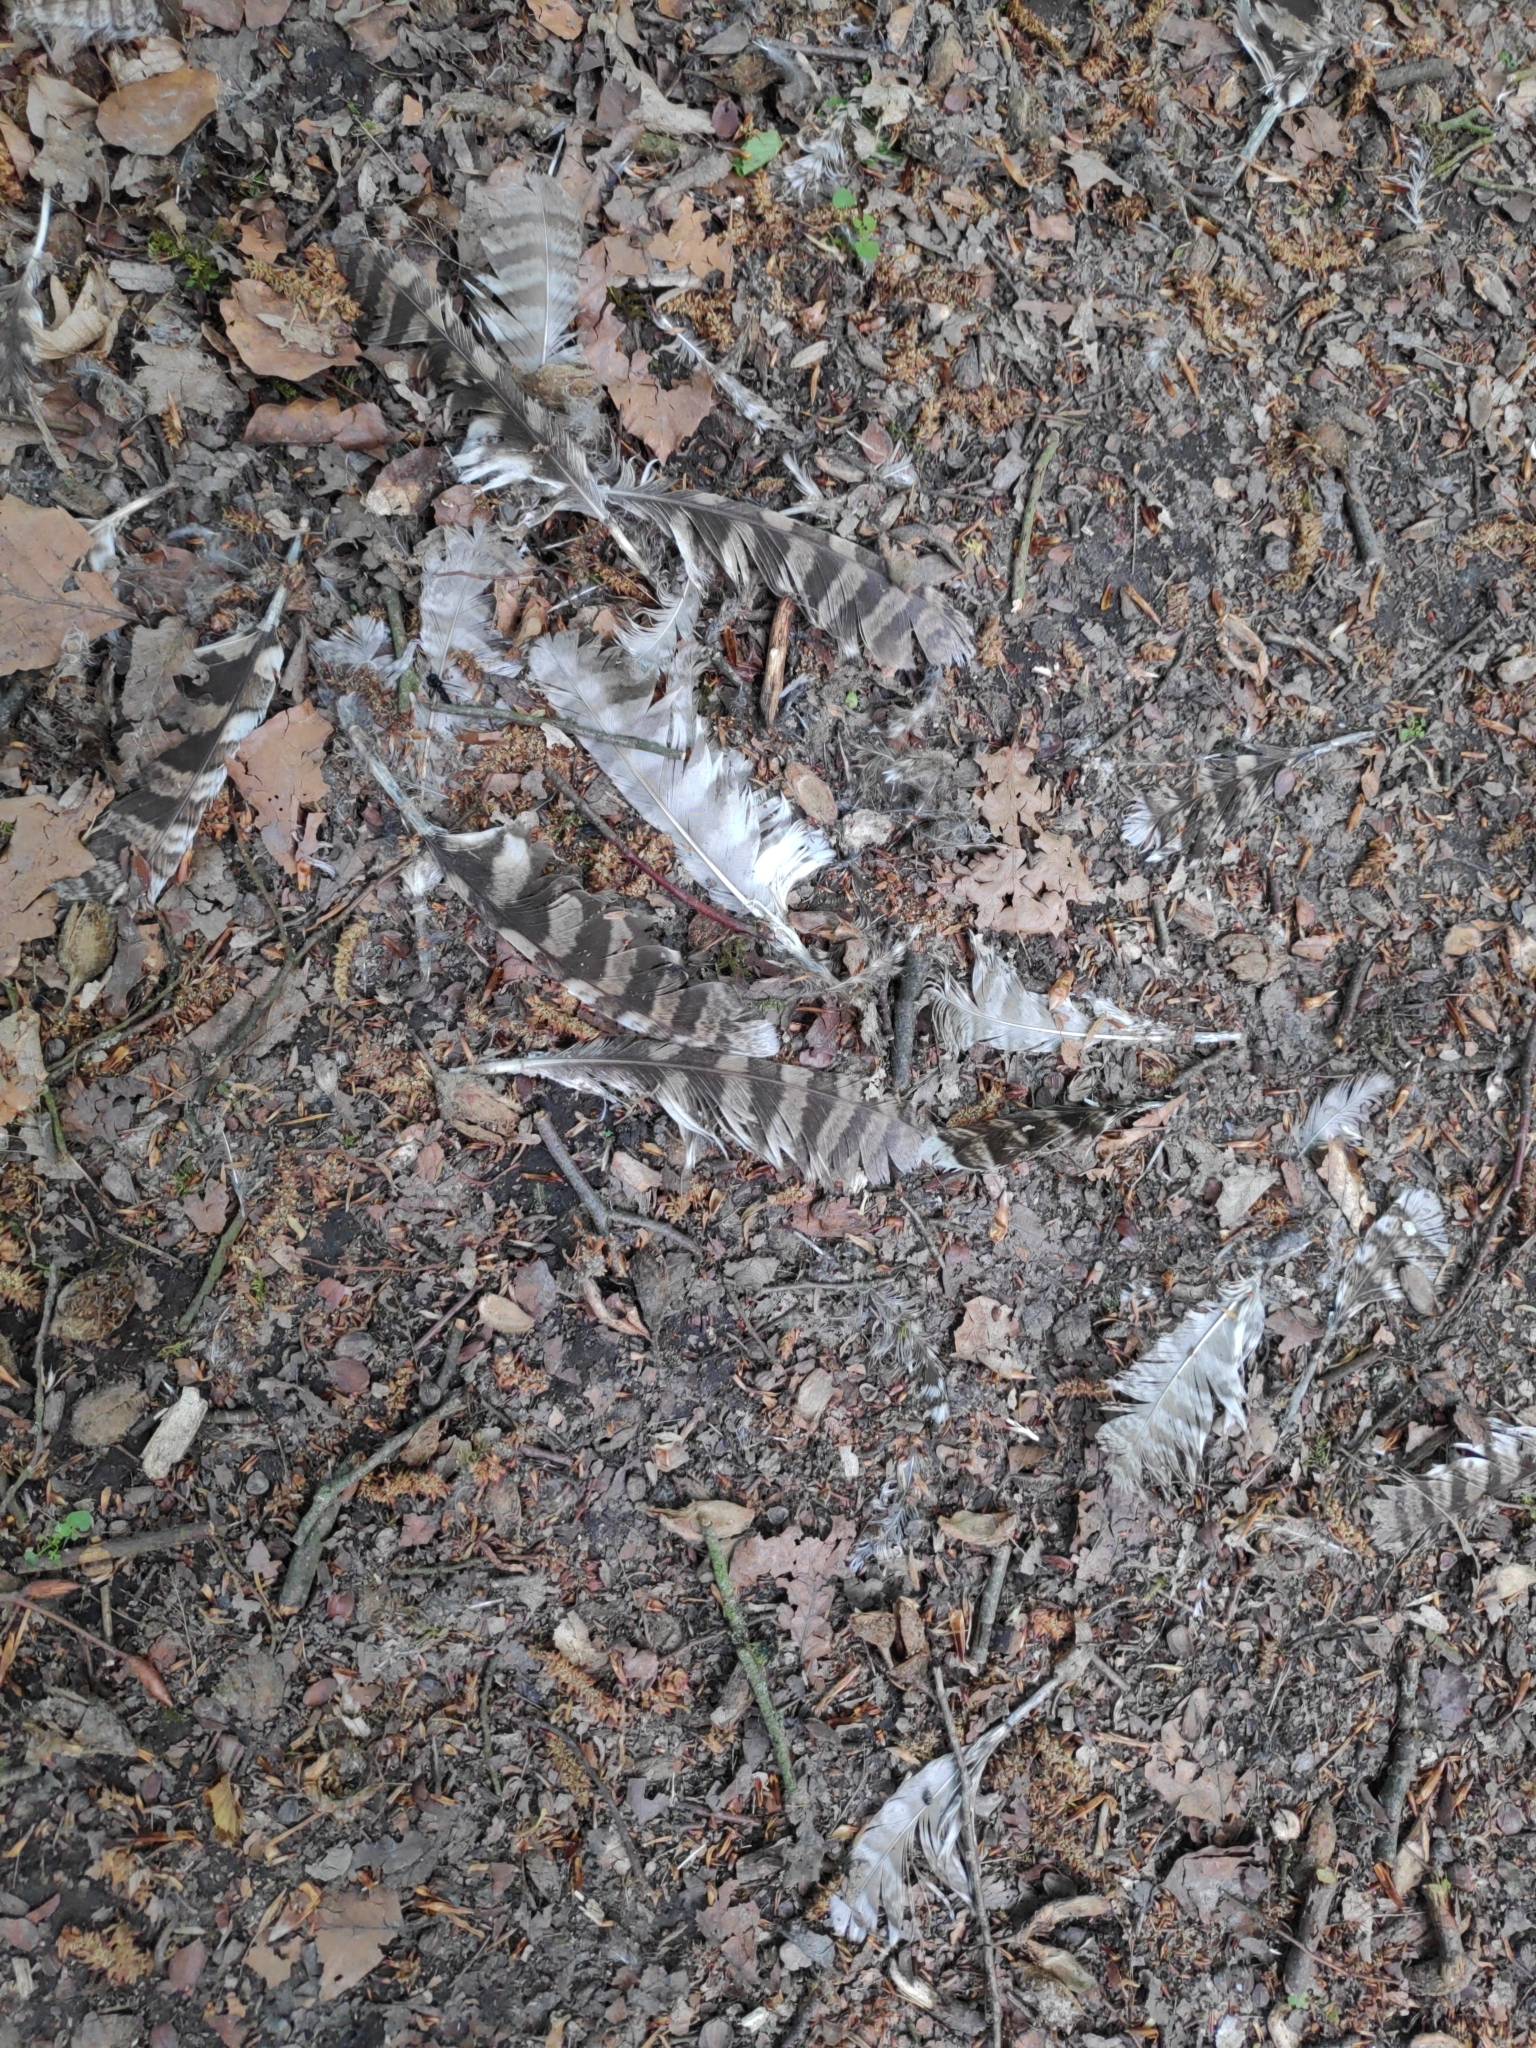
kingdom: Animalia
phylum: Chordata
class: Aves
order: Strigiformes
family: Strigidae
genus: Strix
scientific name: Strix aluco
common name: Tawny owl
